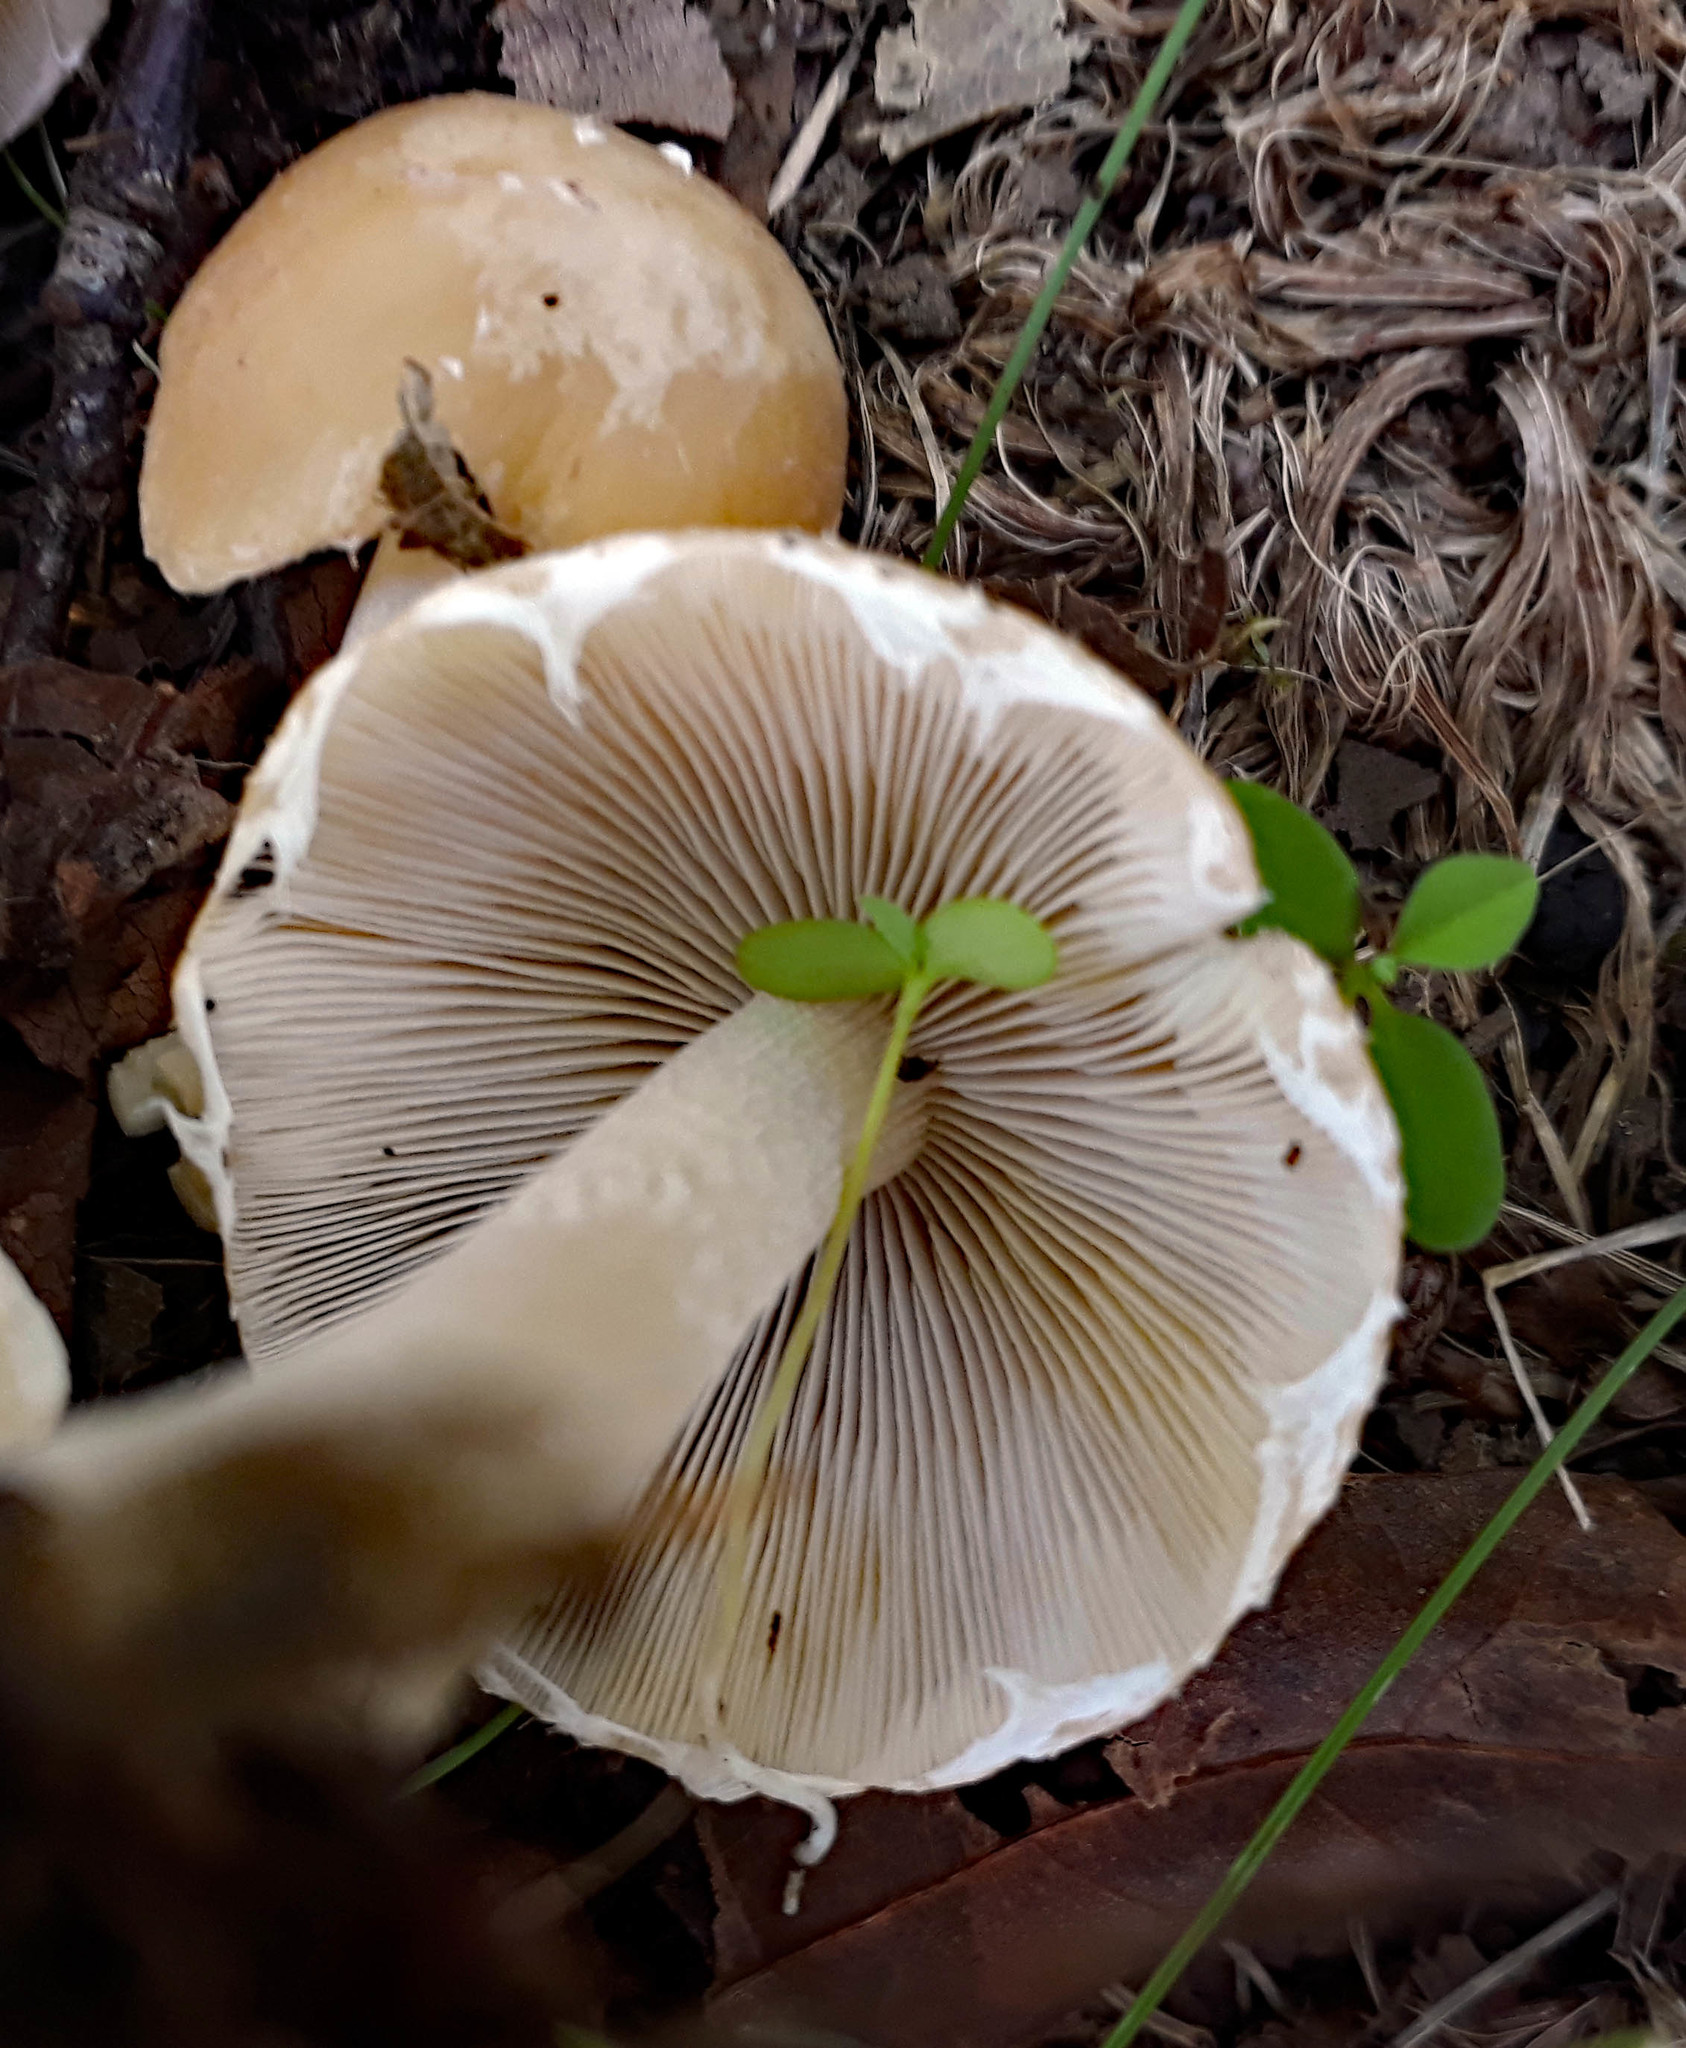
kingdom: Fungi
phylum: Basidiomycota
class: Agaricomycetes
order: Agaricales
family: Psathyrellaceae
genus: Candolleomyces
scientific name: Candolleomyces candolleanus
